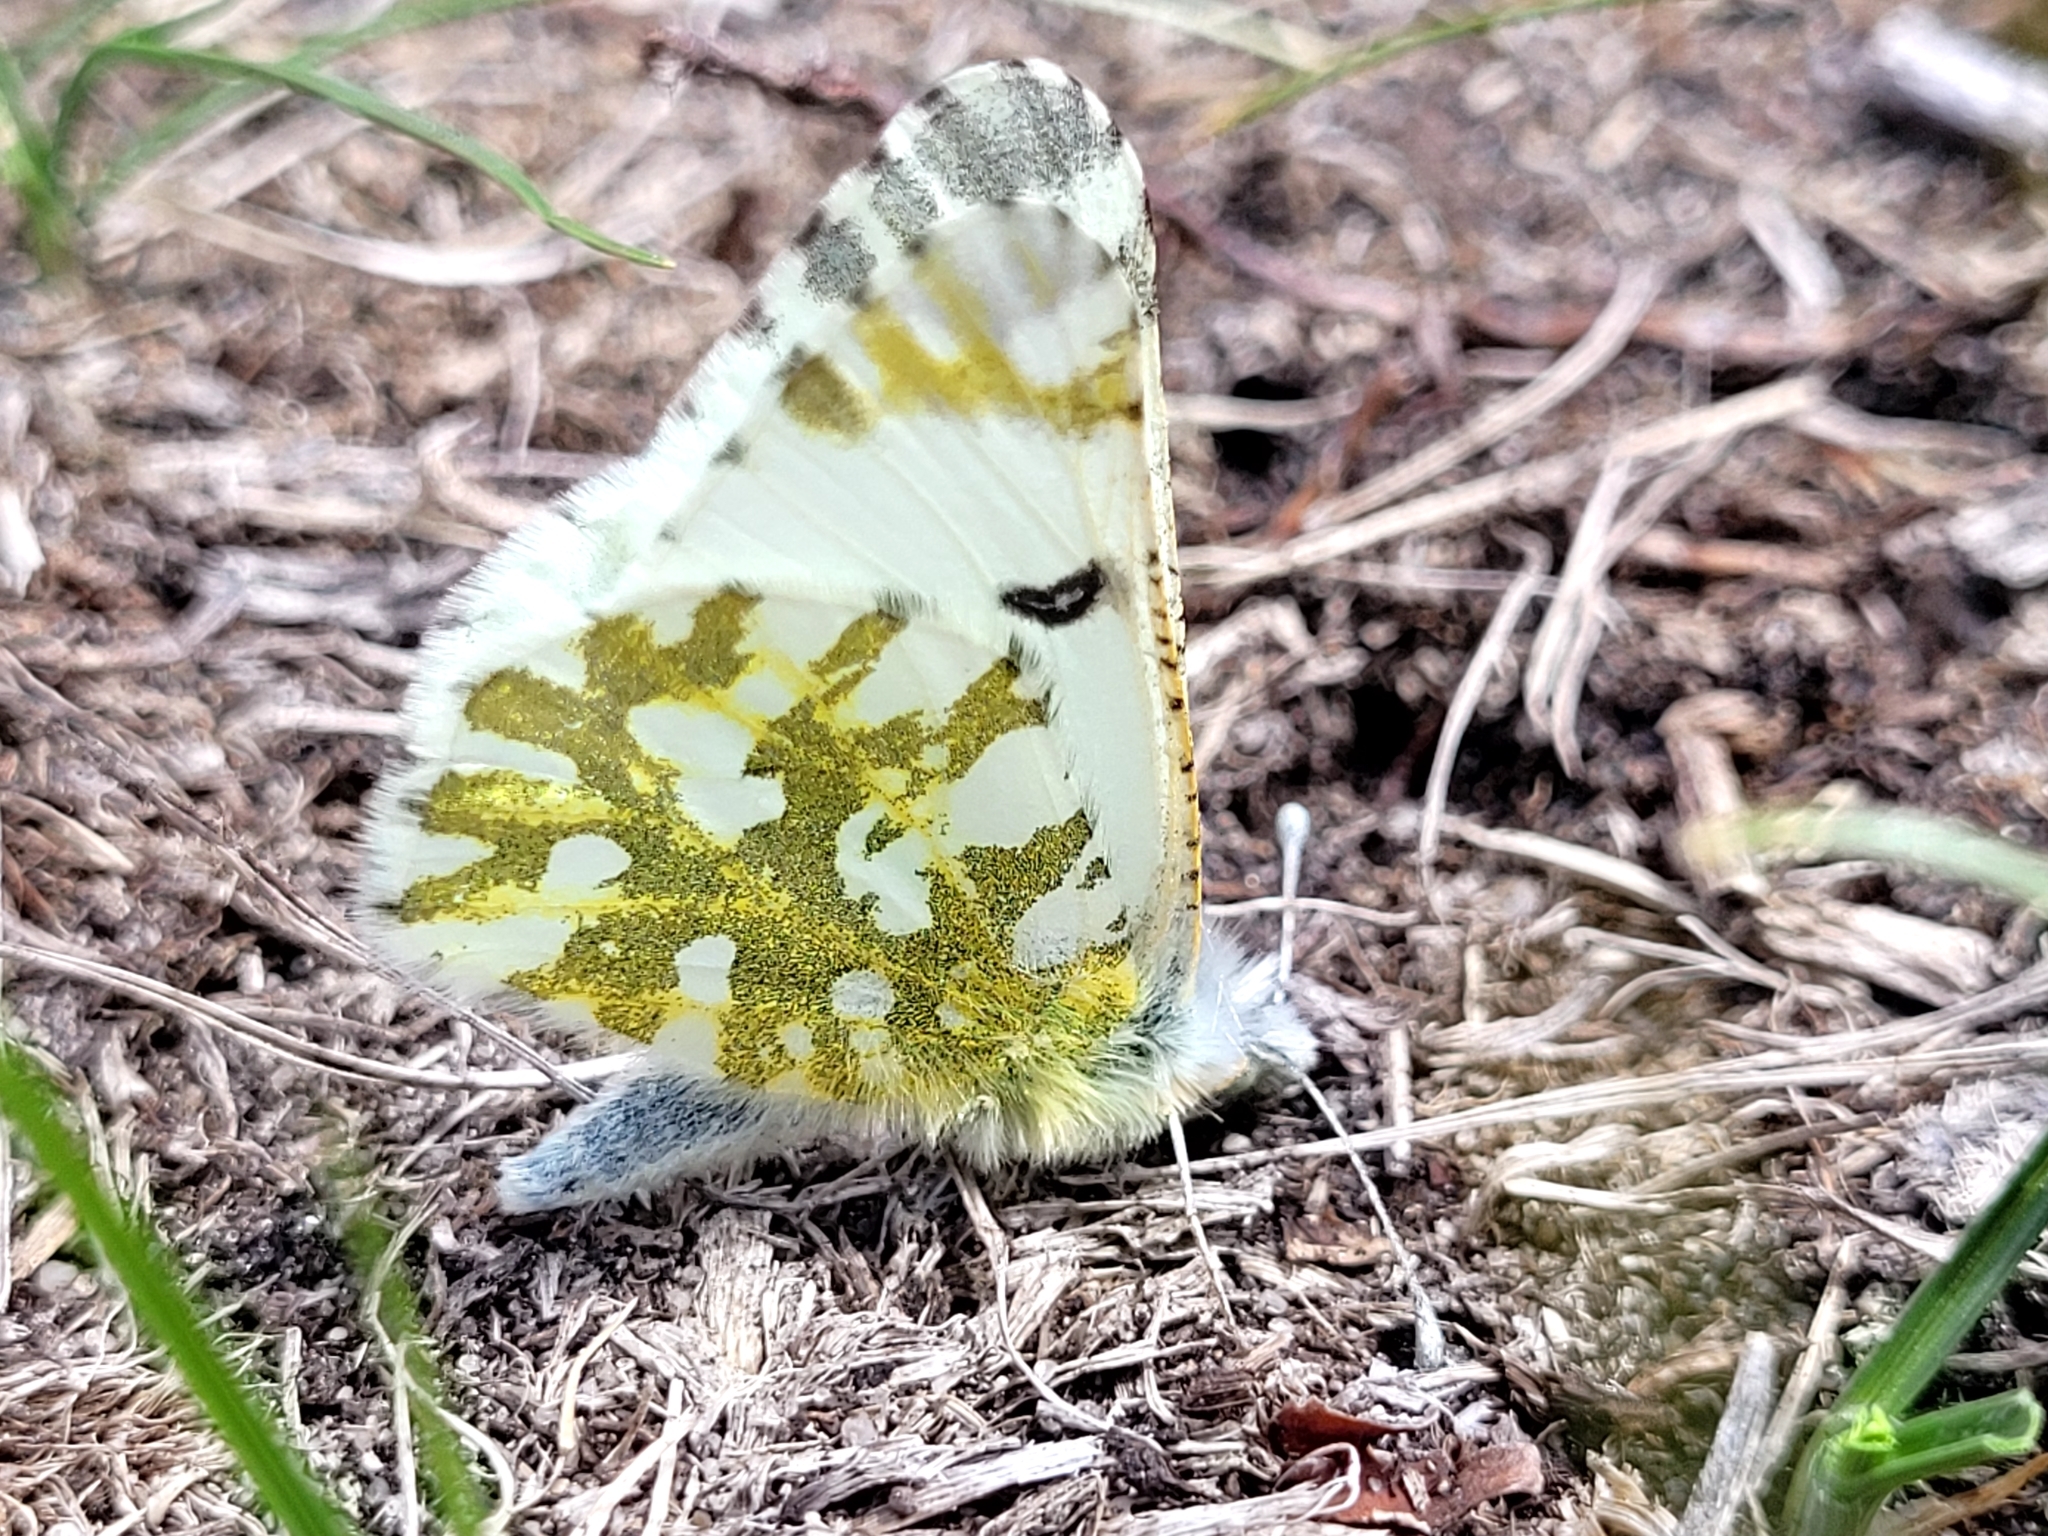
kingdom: Animalia
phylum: Arthropoda
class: Insecta
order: Lepidoptera
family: Pieridae
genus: Euchloe
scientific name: Euchloe ausonides
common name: Creamy marblewing
